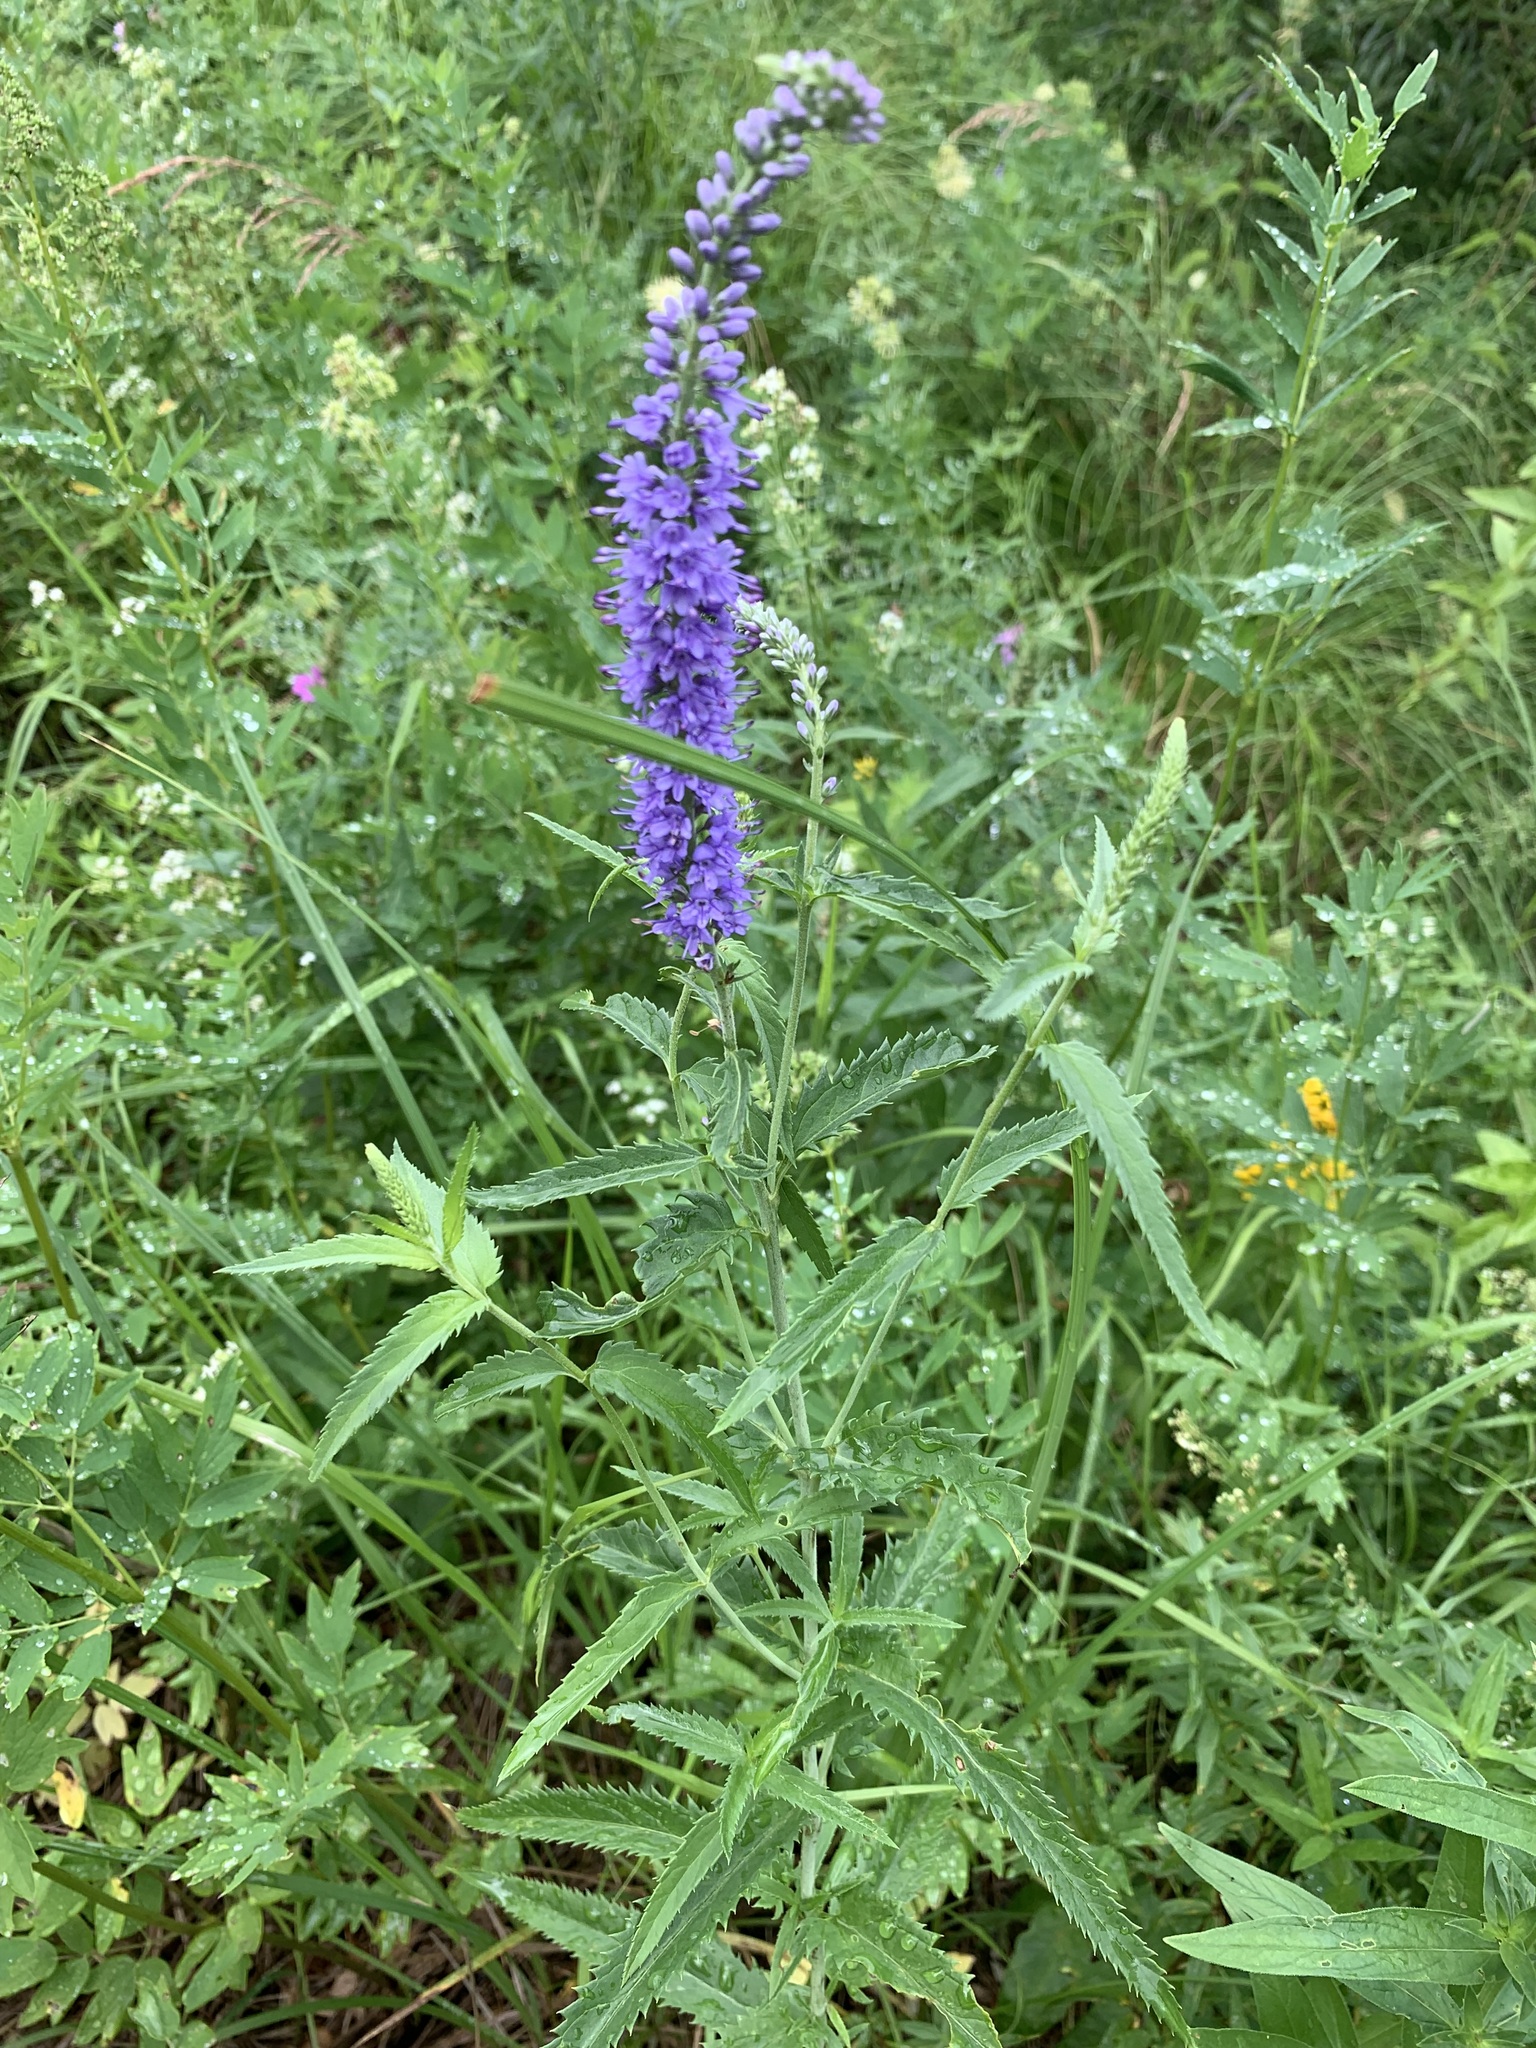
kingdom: Plantae
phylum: Tracheophyta
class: Magnoliopsida
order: Lamiales
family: Plantaginaceae
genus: Veronica
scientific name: Veronica longifolia
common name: Garden speedwell
